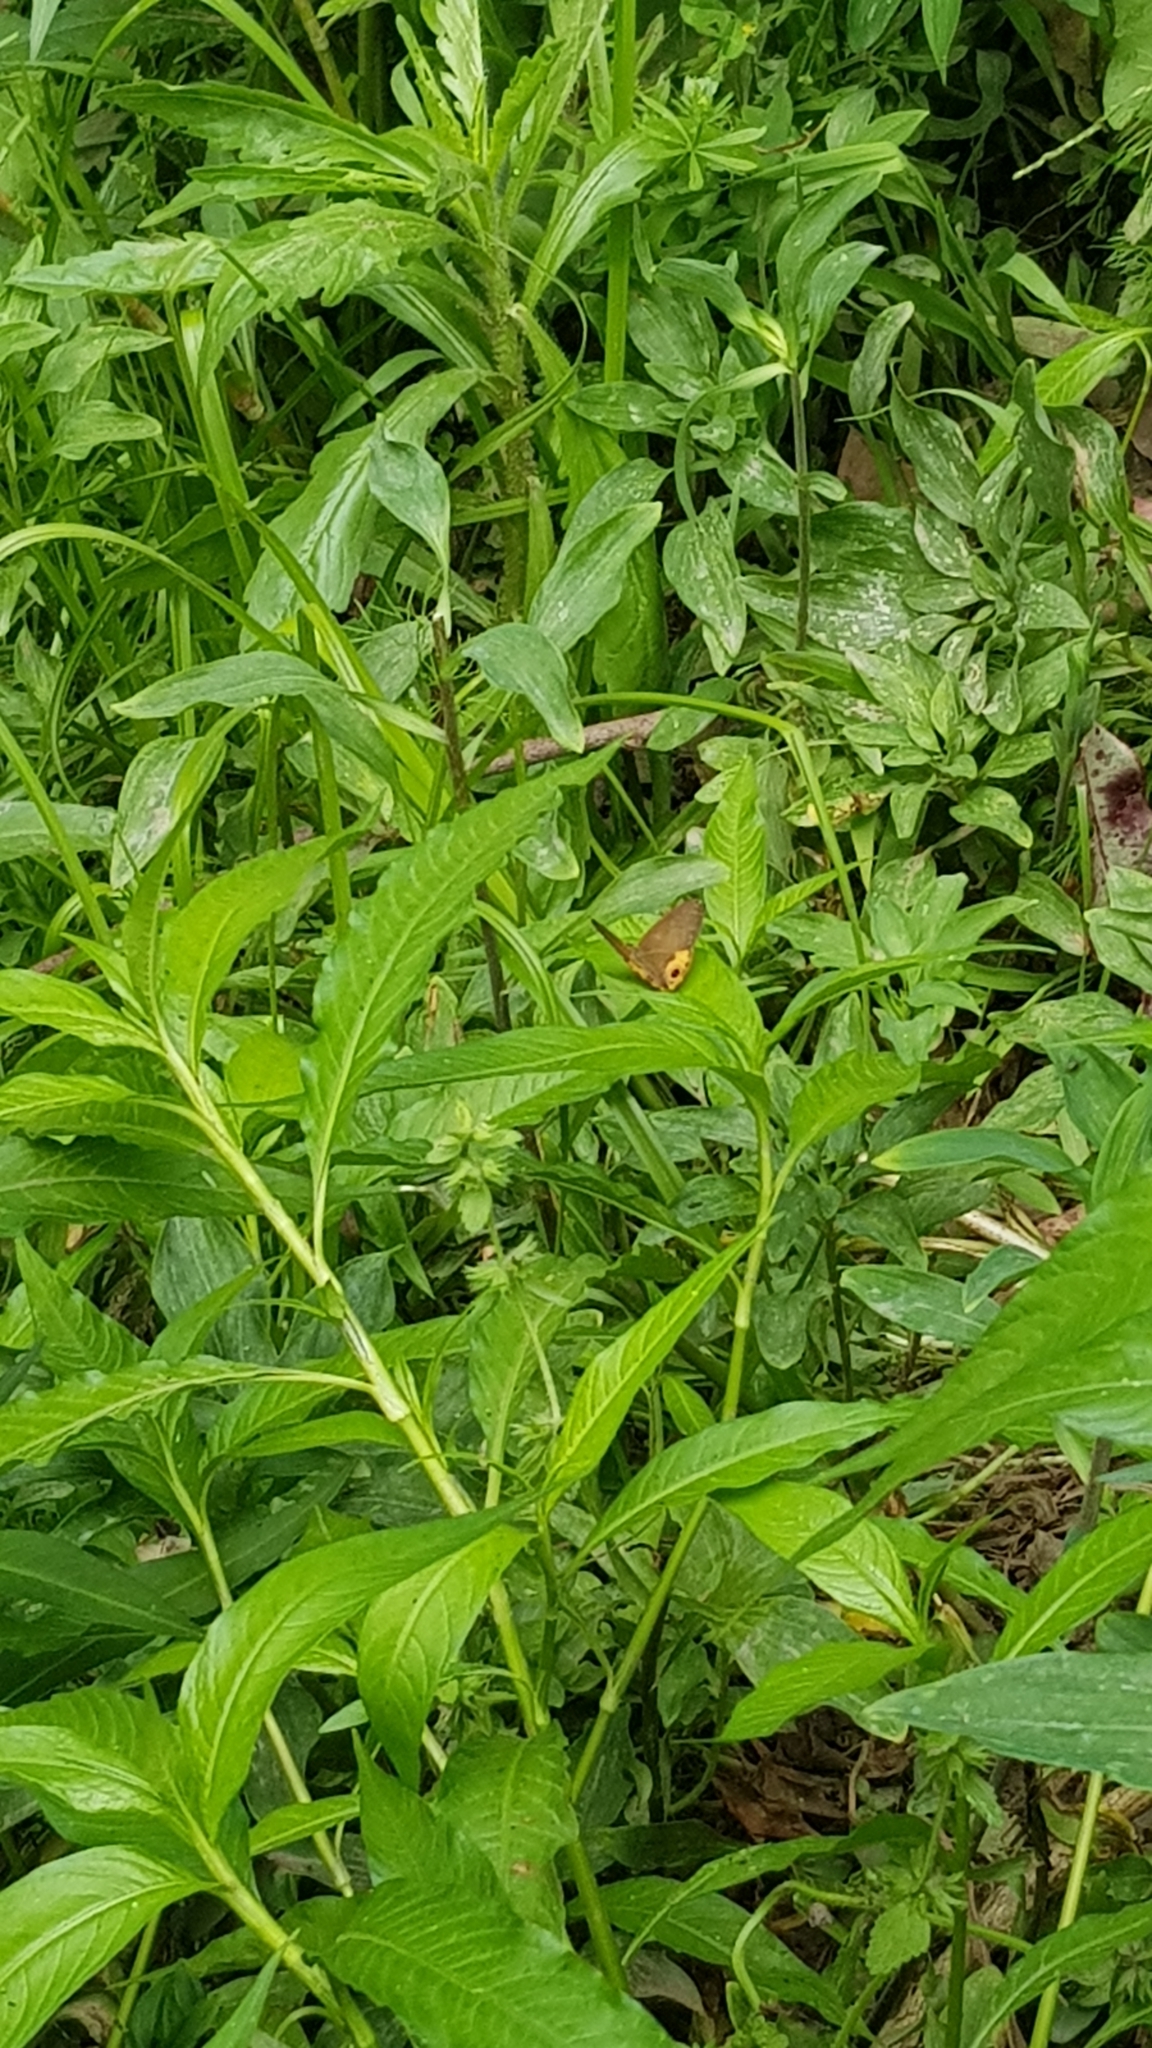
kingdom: Animalia
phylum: Arthropoda
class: Insecta
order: Lepidoptera
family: Nymphalidae
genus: Hypocysta
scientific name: Hypocysta metirius
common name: Brown ringlet
